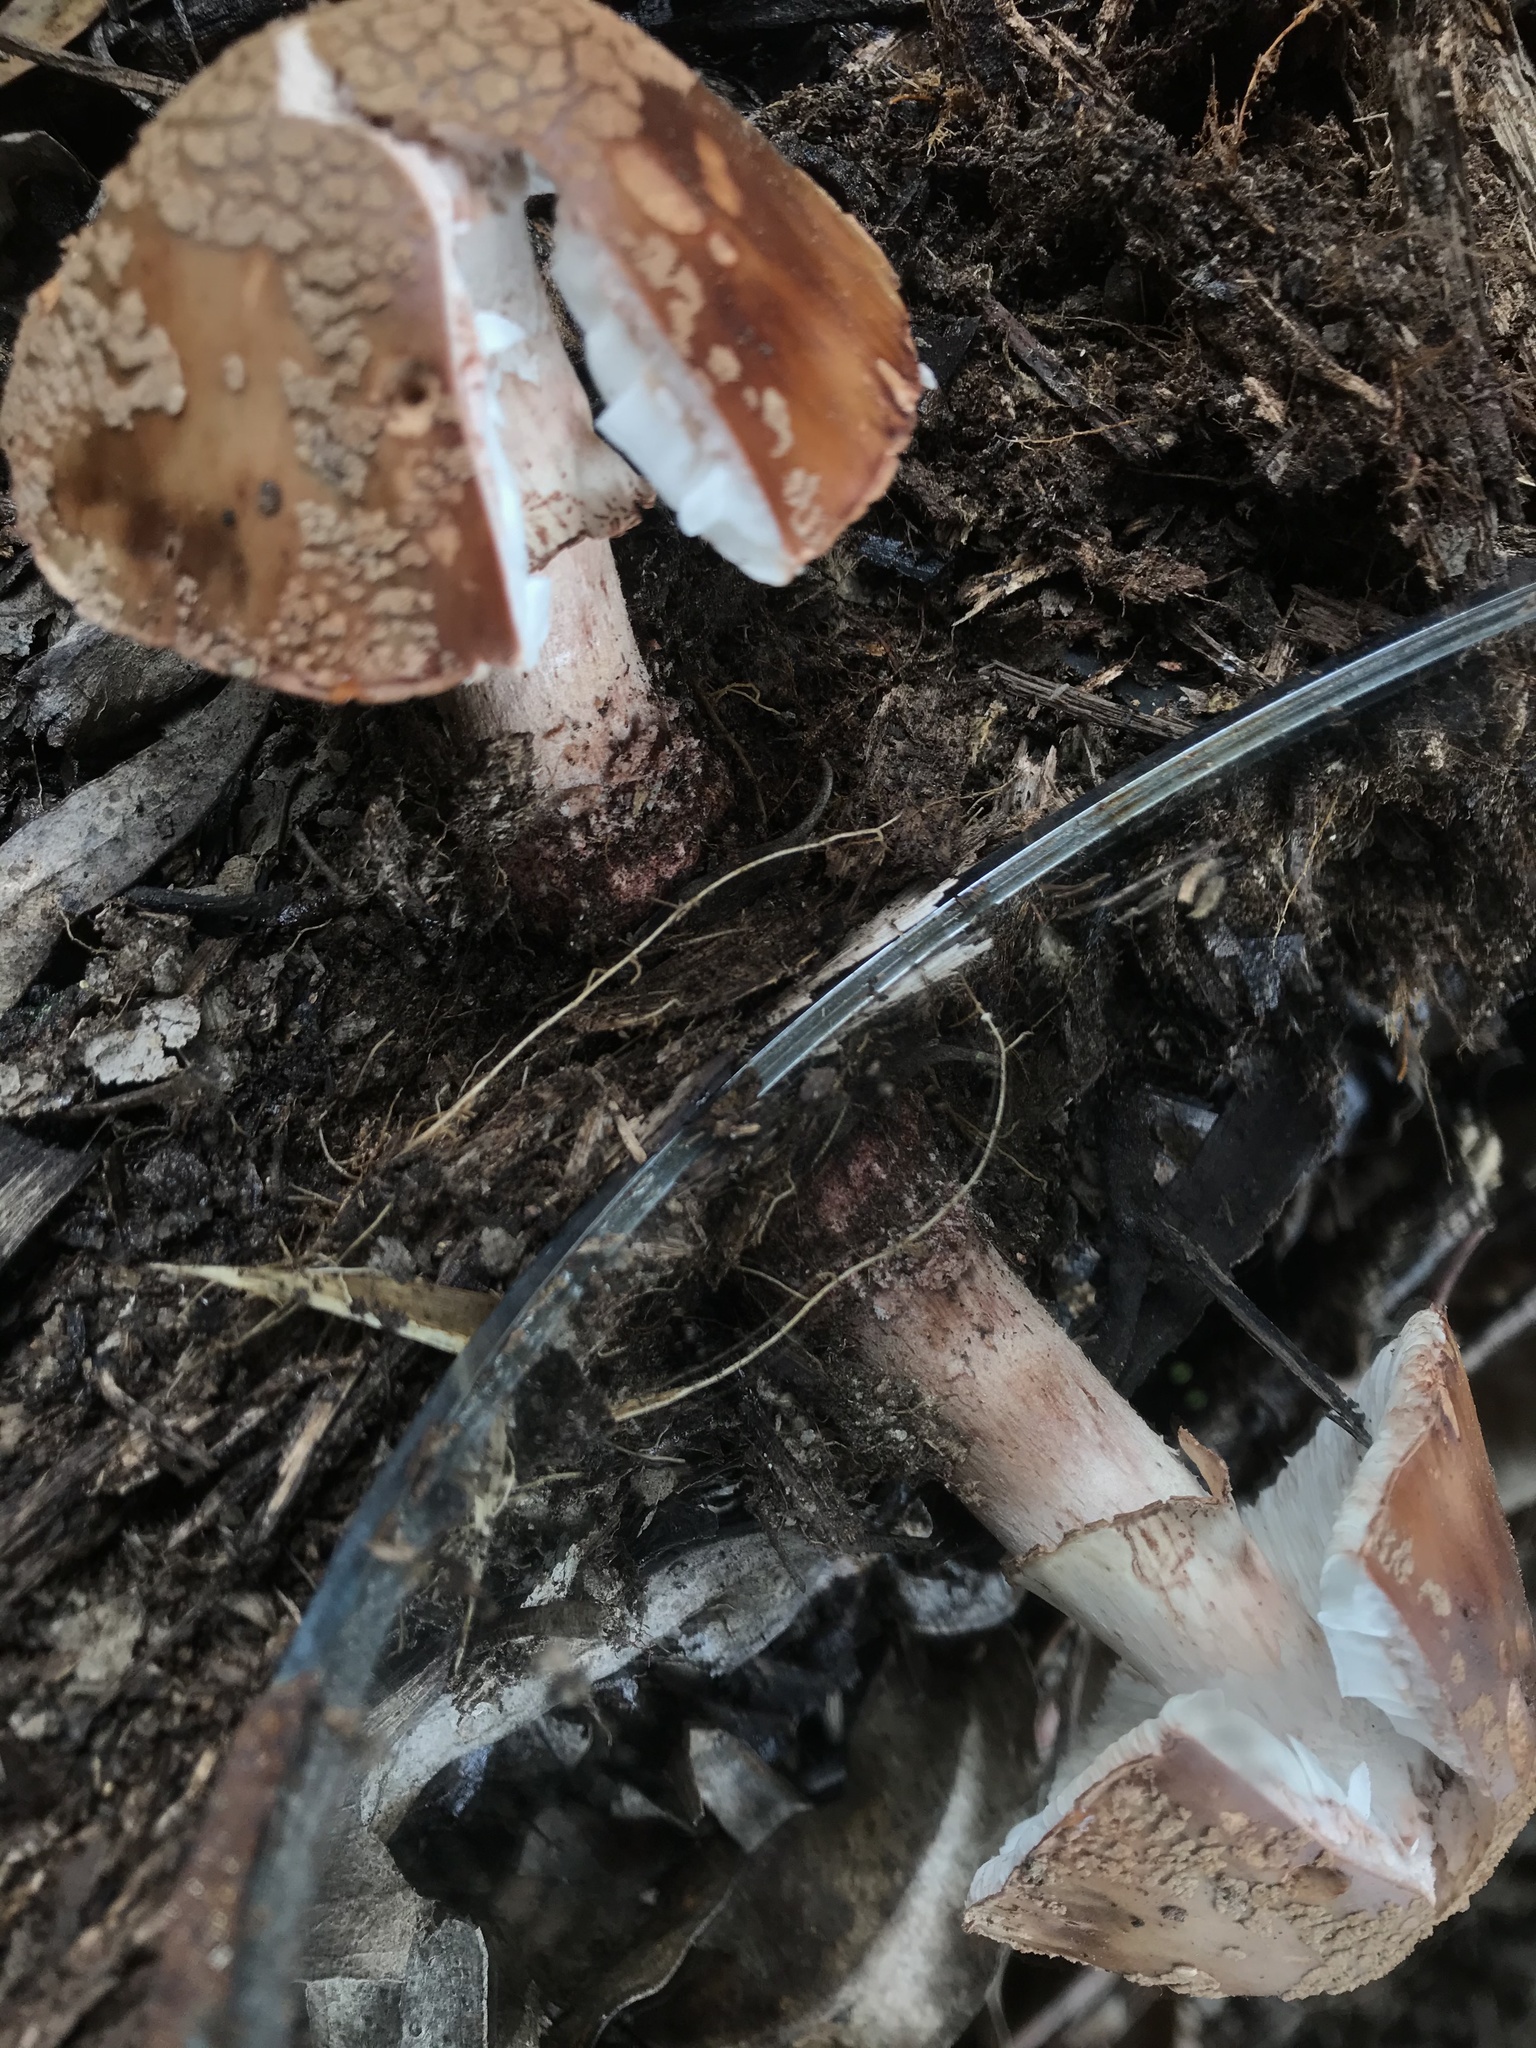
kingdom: Fungi
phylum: Basidiomycota
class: Agaricomycetes
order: Agaricales
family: Amanitaceae
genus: Amanita
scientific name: Amanita brunneolocularis
